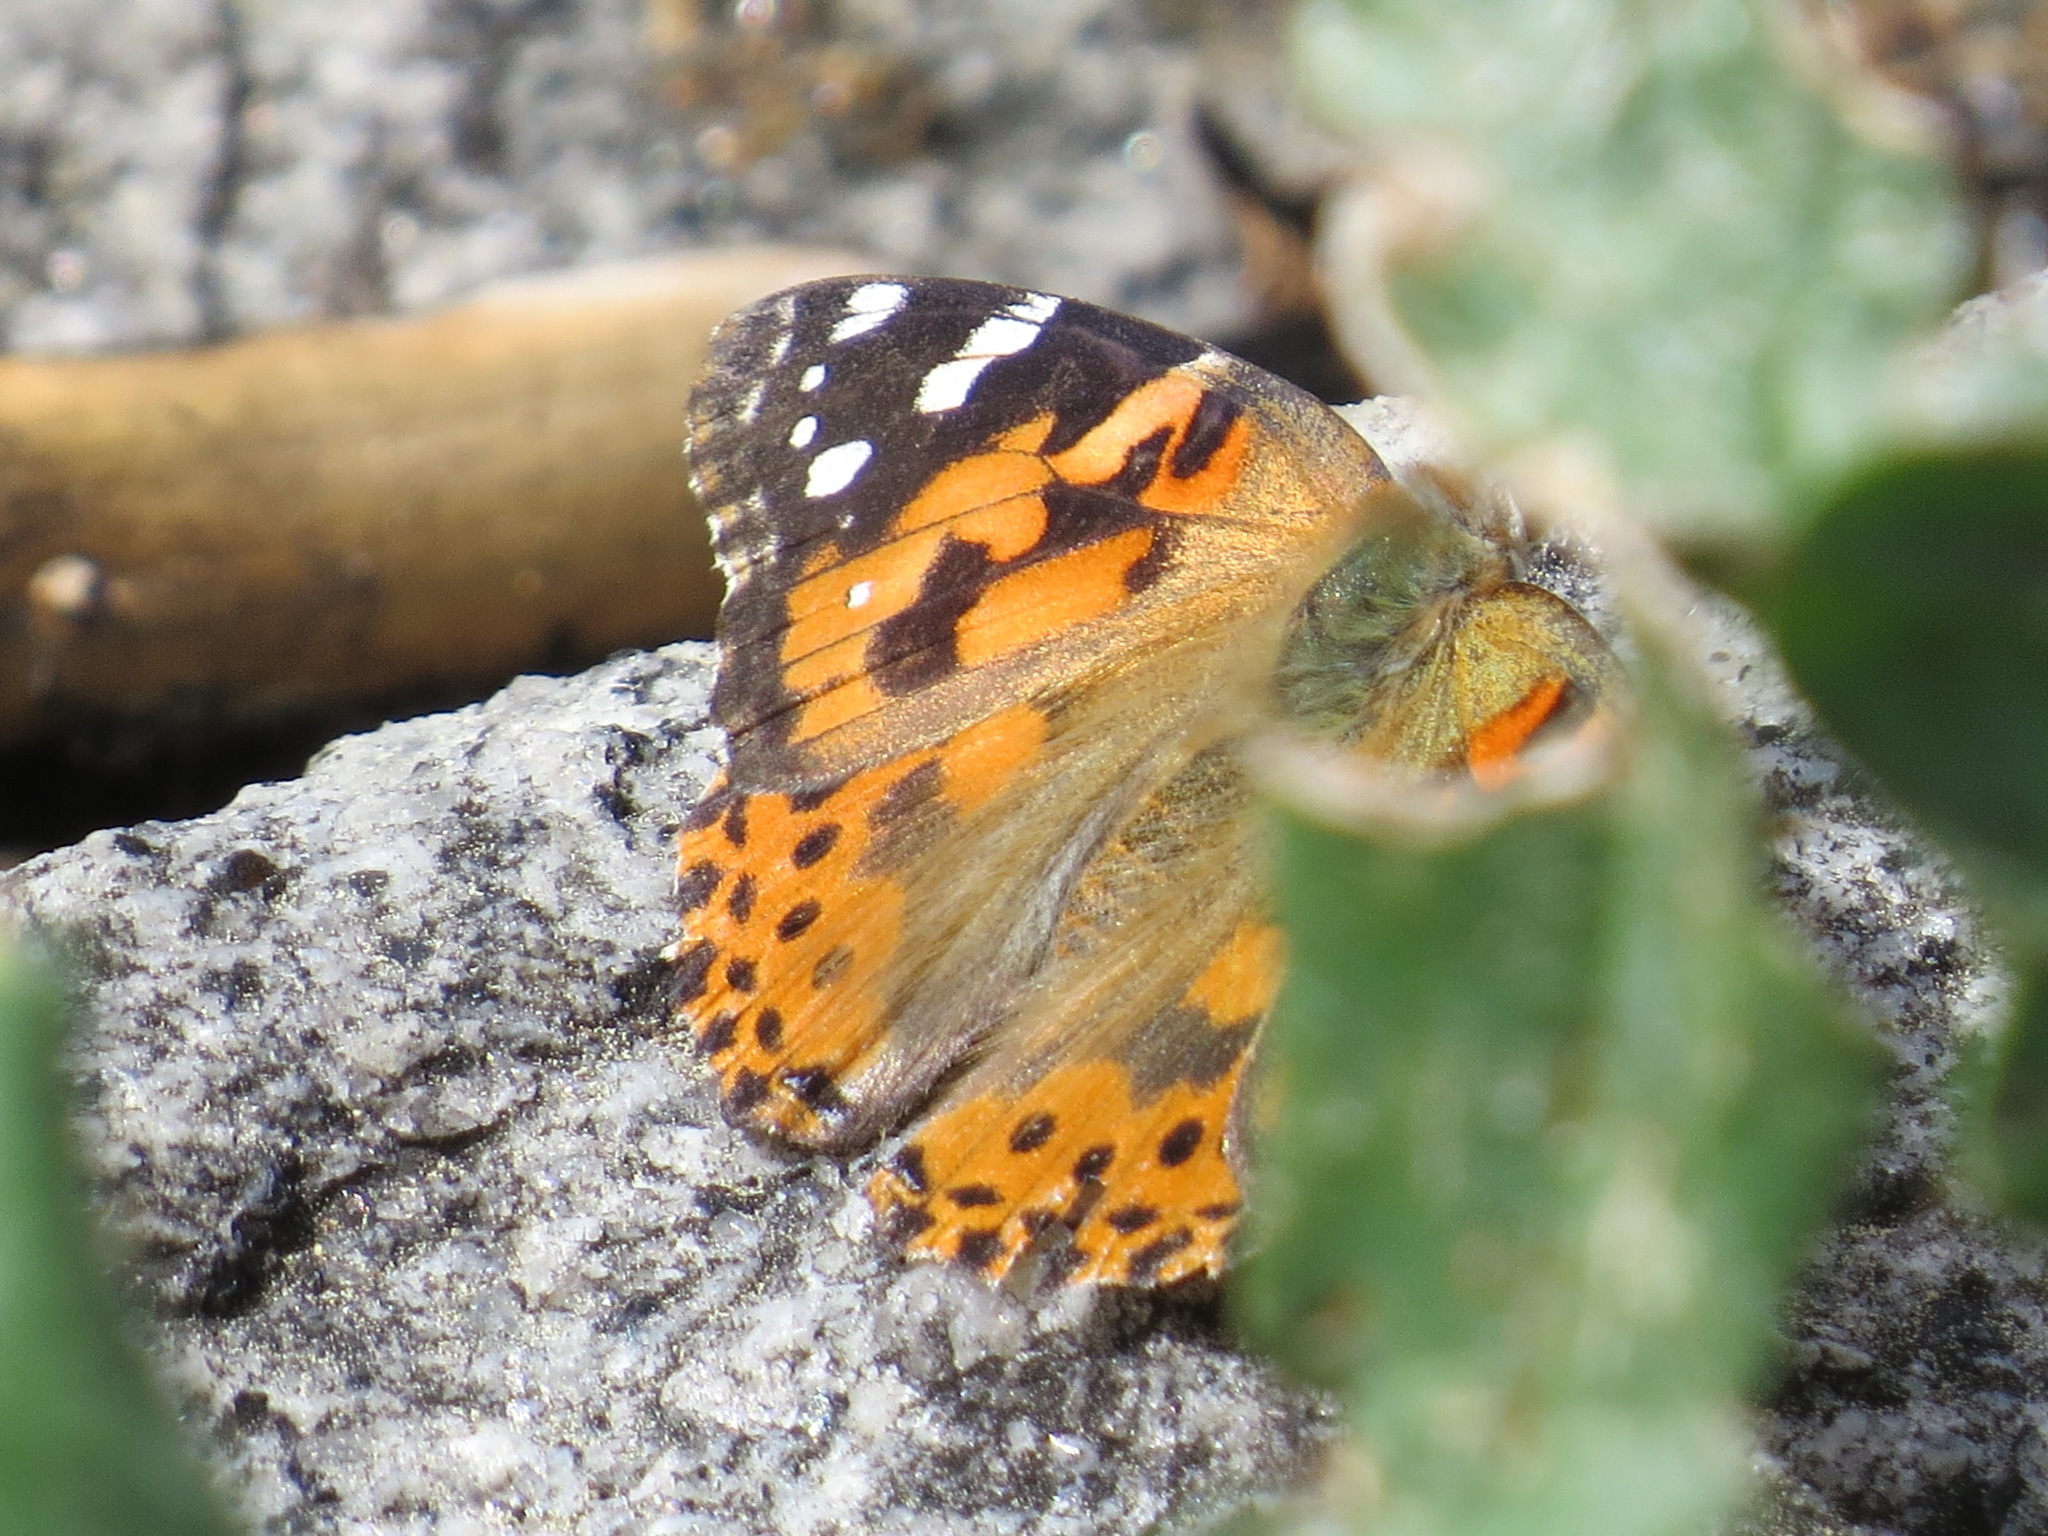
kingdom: Animalia
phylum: Arthropoda
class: Insecta
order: Lepidoptera
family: Nymphalidae
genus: Vanessa
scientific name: Vanessa cardui
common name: Painted lady
